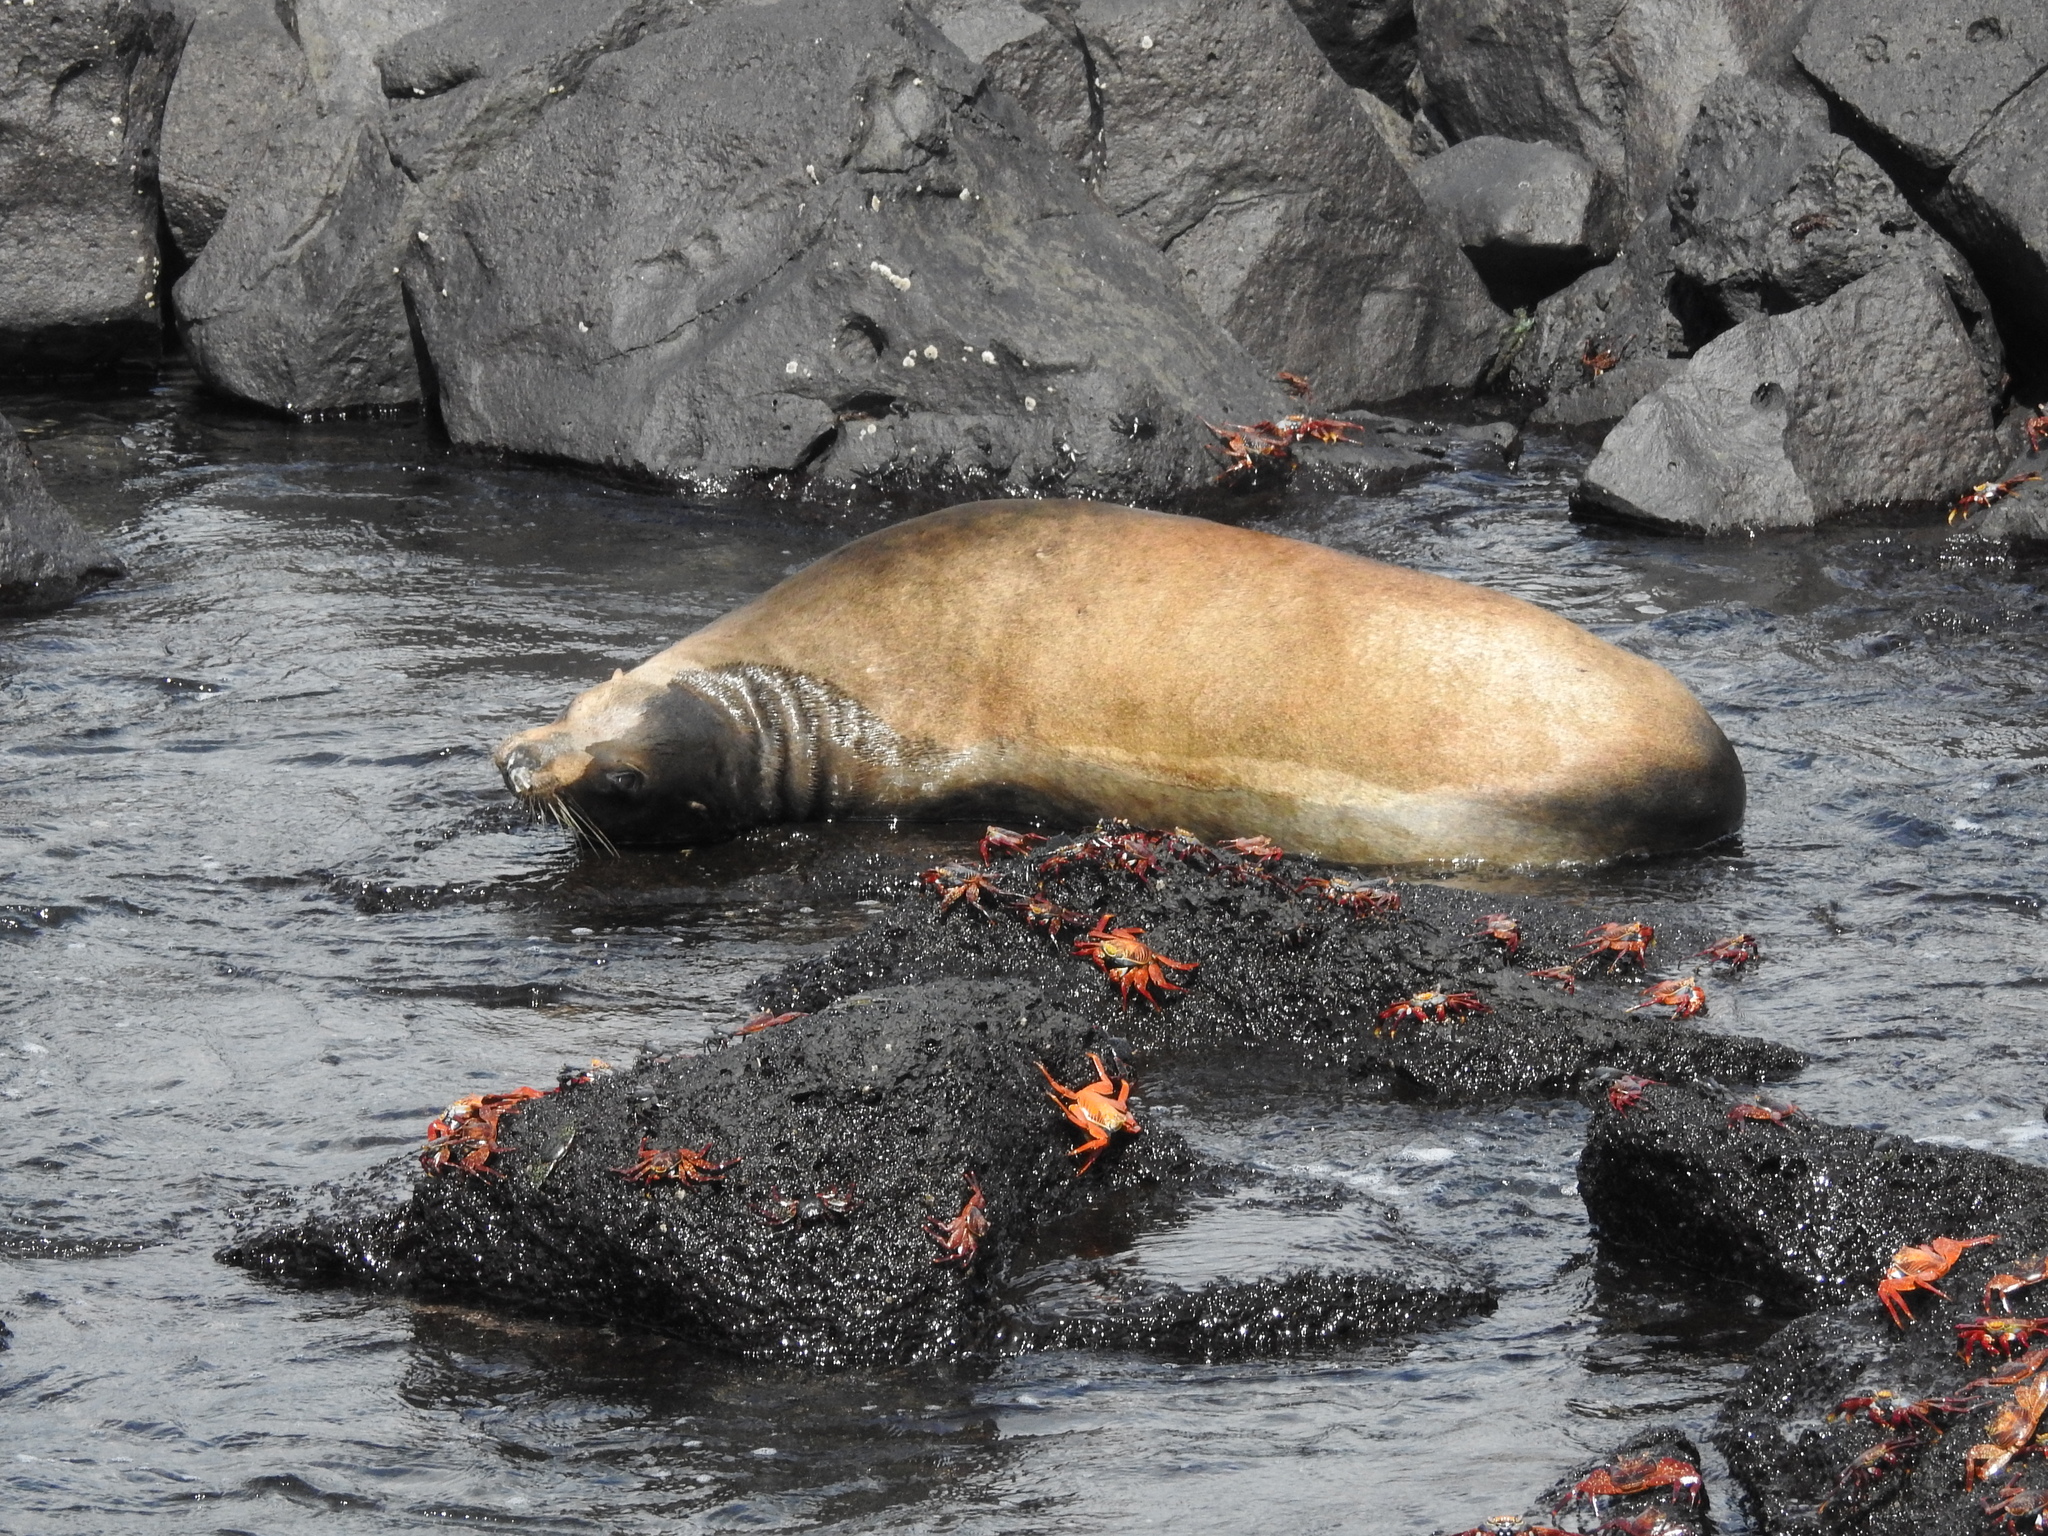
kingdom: Animalia
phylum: Chordata
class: Mammalia
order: Carnivora
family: Otariidae
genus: Zalophus
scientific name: Zalophus wollebaeki
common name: Galapagos sea lion
